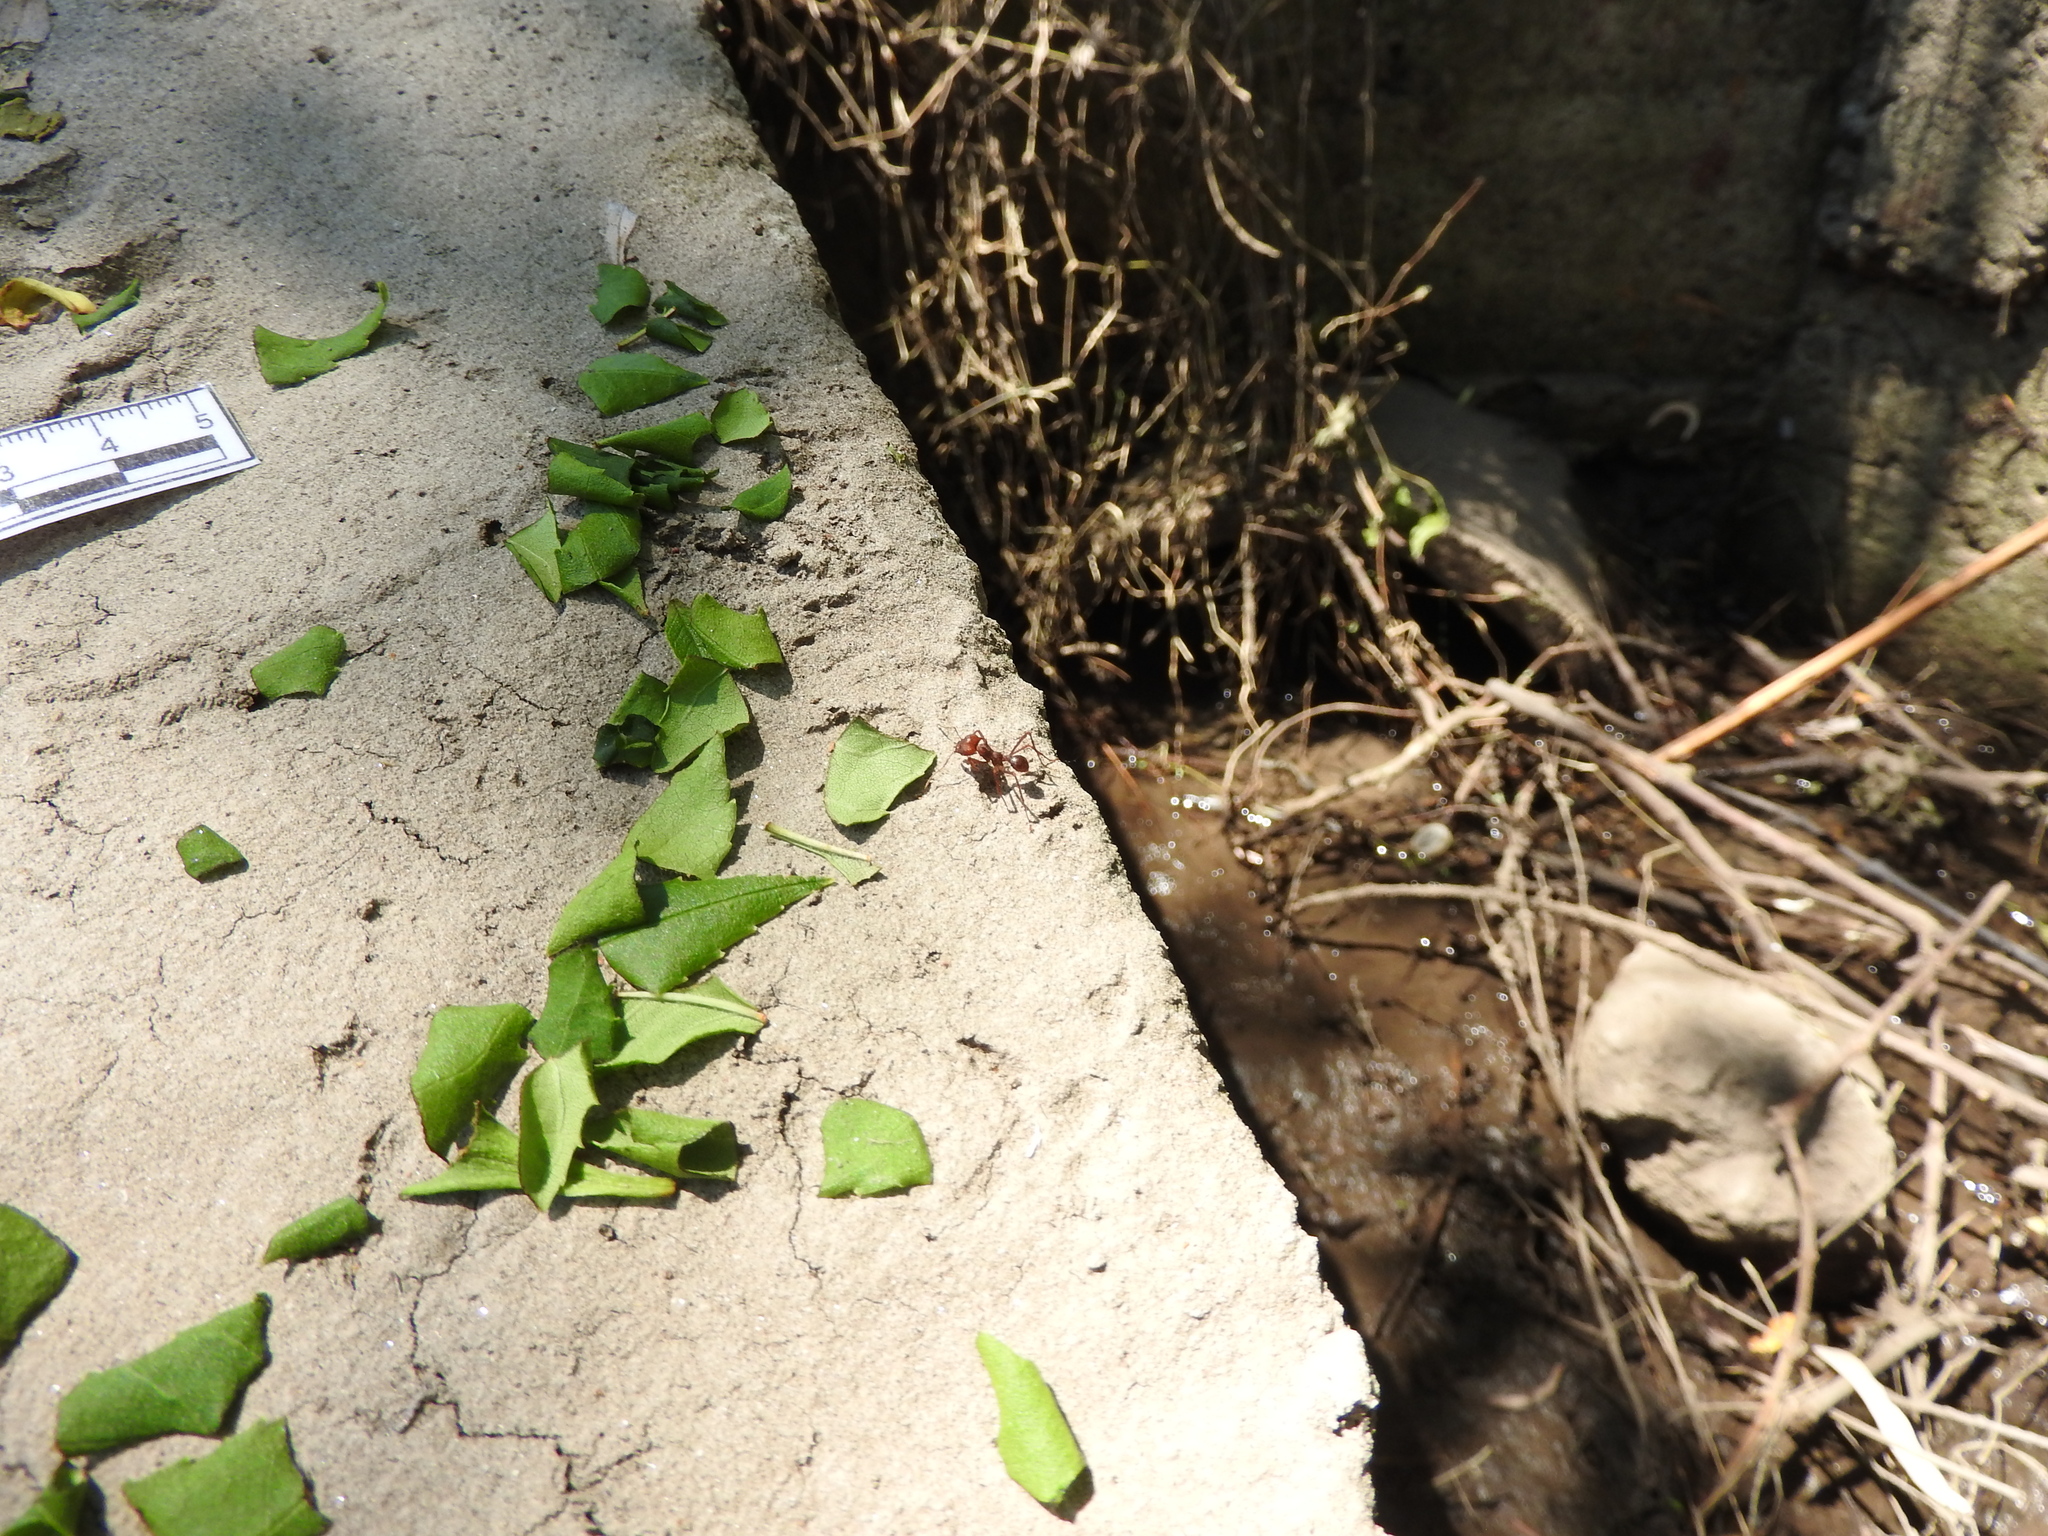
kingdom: Animalia
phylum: Arthropoda
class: Insecta
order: Hymenoptera
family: Formicidae
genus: Atta
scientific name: Atta mexicana
